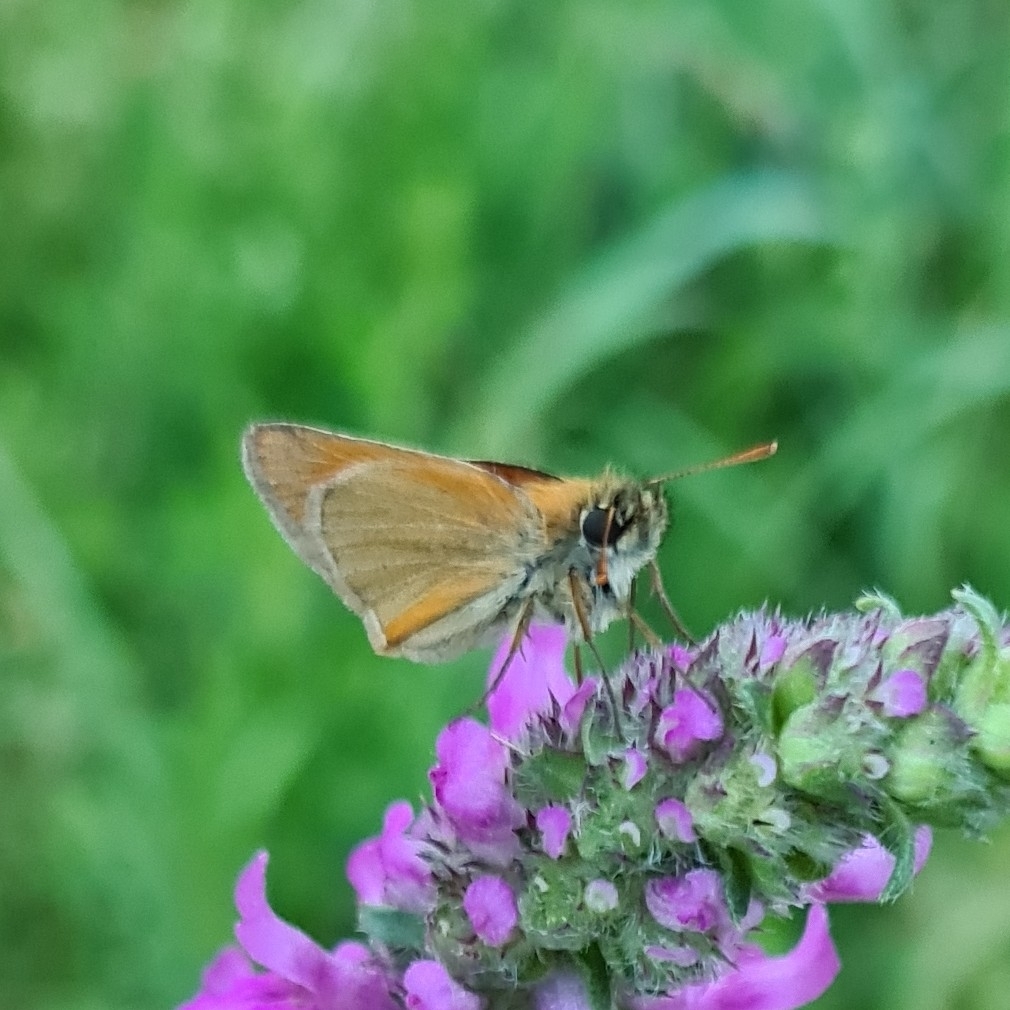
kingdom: Animalia
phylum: Arthropoda
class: Insecta
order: Lepidoptera
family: Hesperiidae
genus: Thymelicus
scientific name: Thymelicus sylvestris
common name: Small skipper
